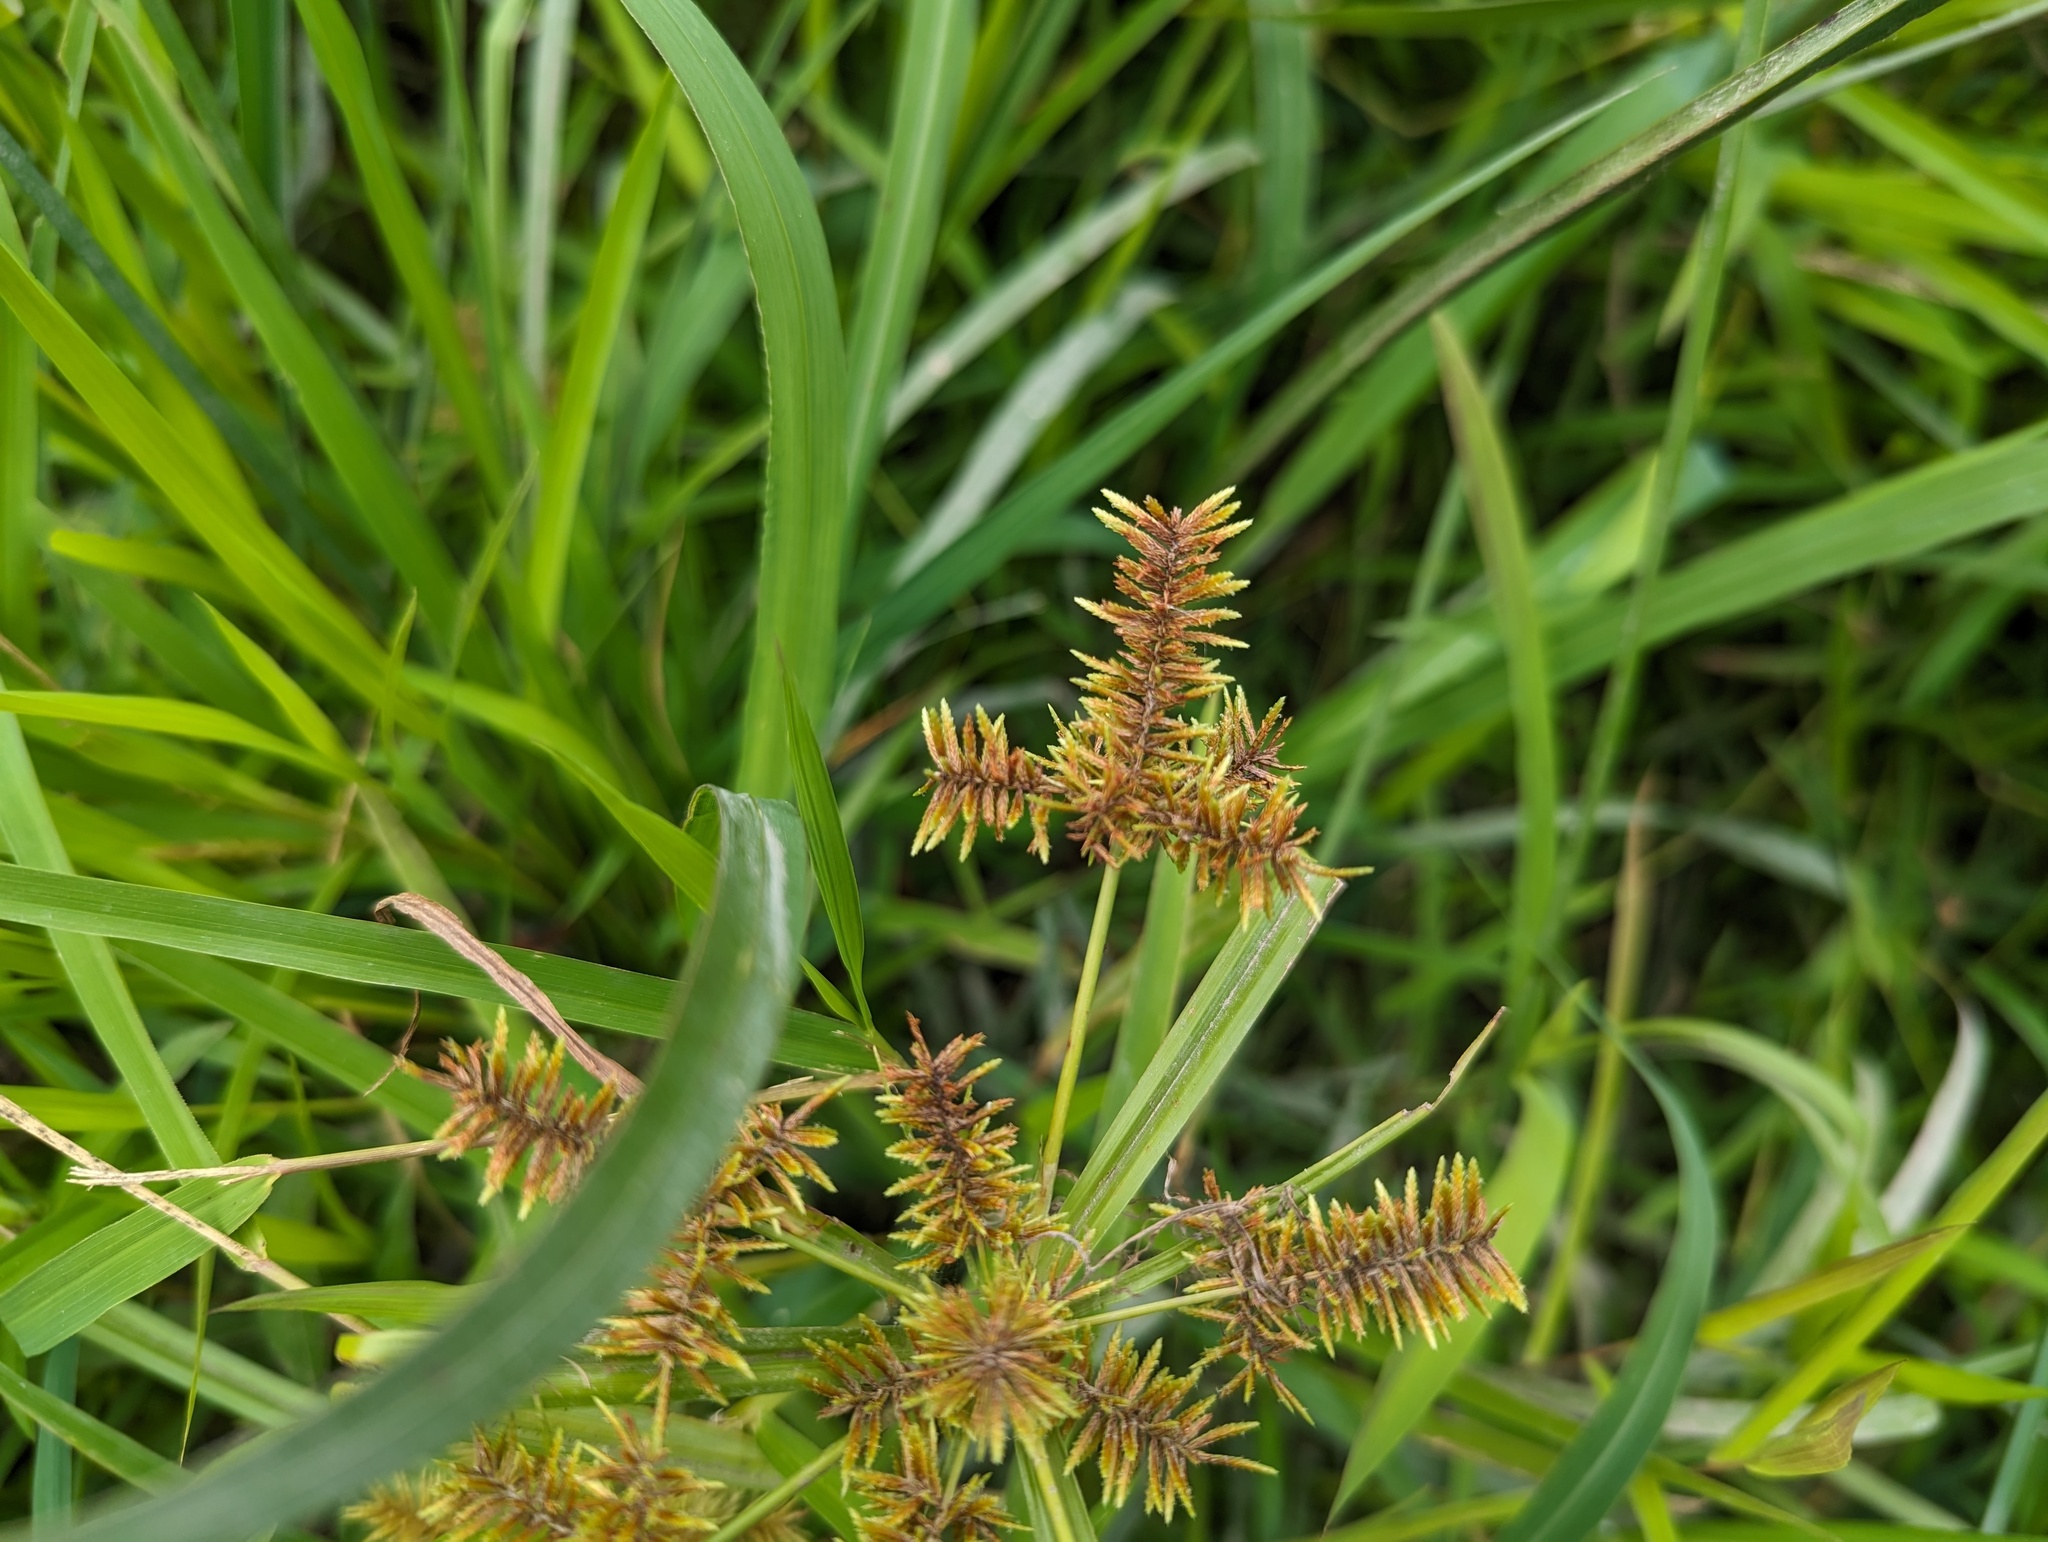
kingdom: Plantae
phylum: Tracheophyta
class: Liliopsida
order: Poales
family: Cyperaceae
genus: Cyperus
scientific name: Cyperus erythrorhizos
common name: Red-root flat sedge
